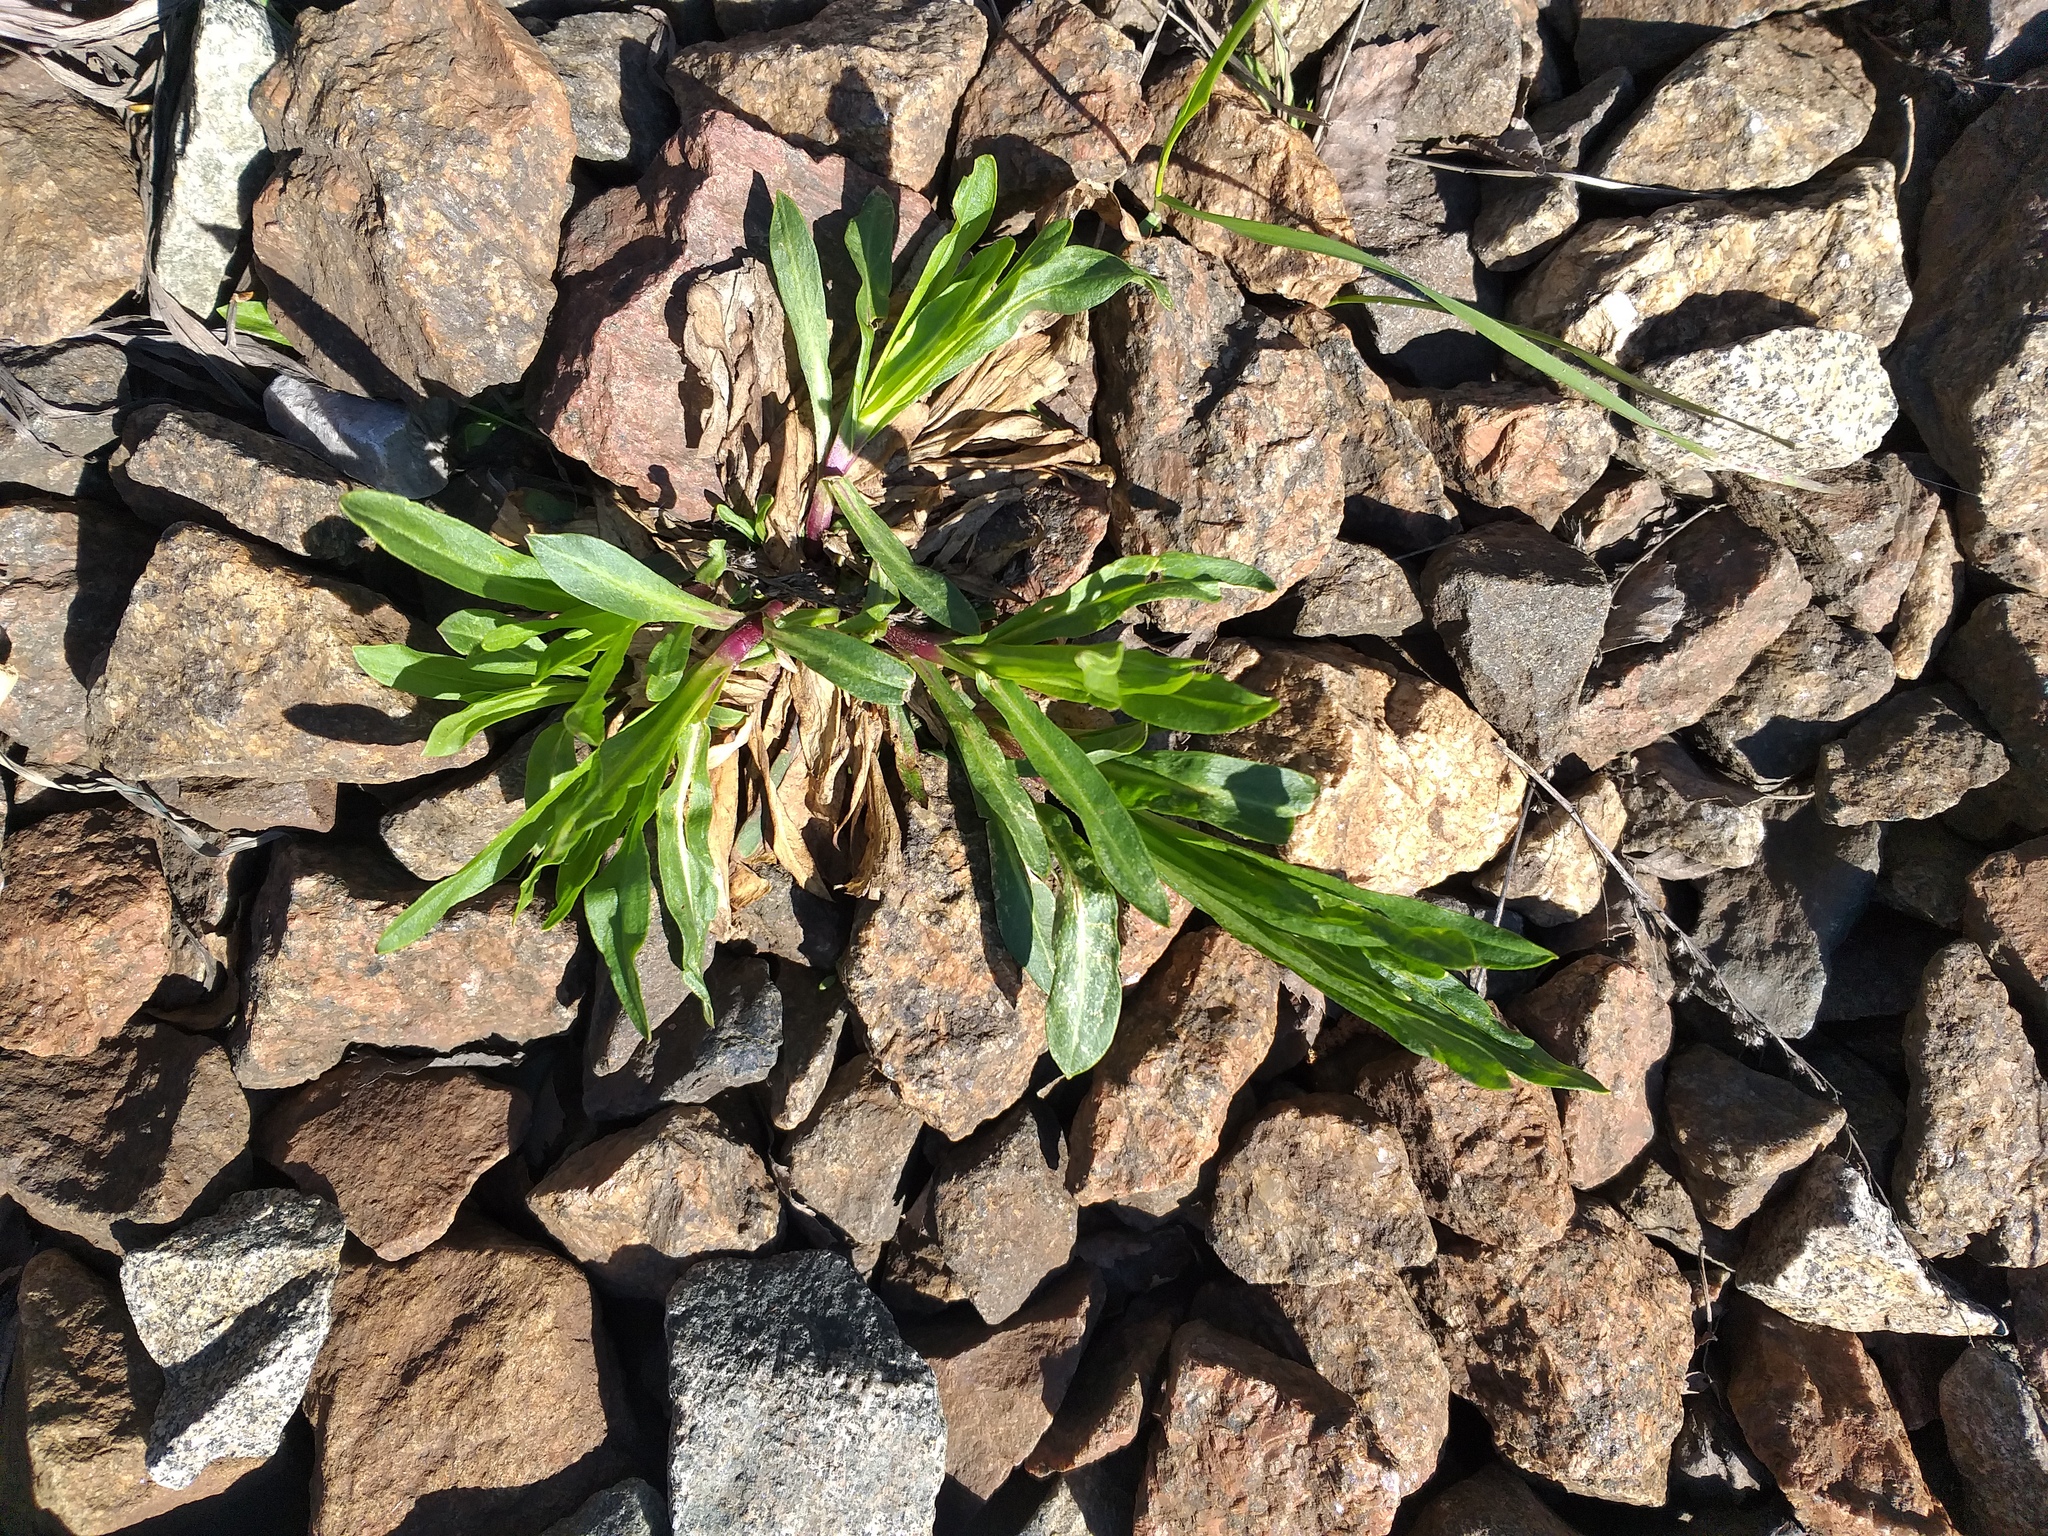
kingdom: Plantae
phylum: Tracheophyta
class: Magnoliopsida
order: Caryophyllales
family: Caryophyllaceae
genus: Silene
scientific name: Silene flos-cuculi
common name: Ragged-robin
